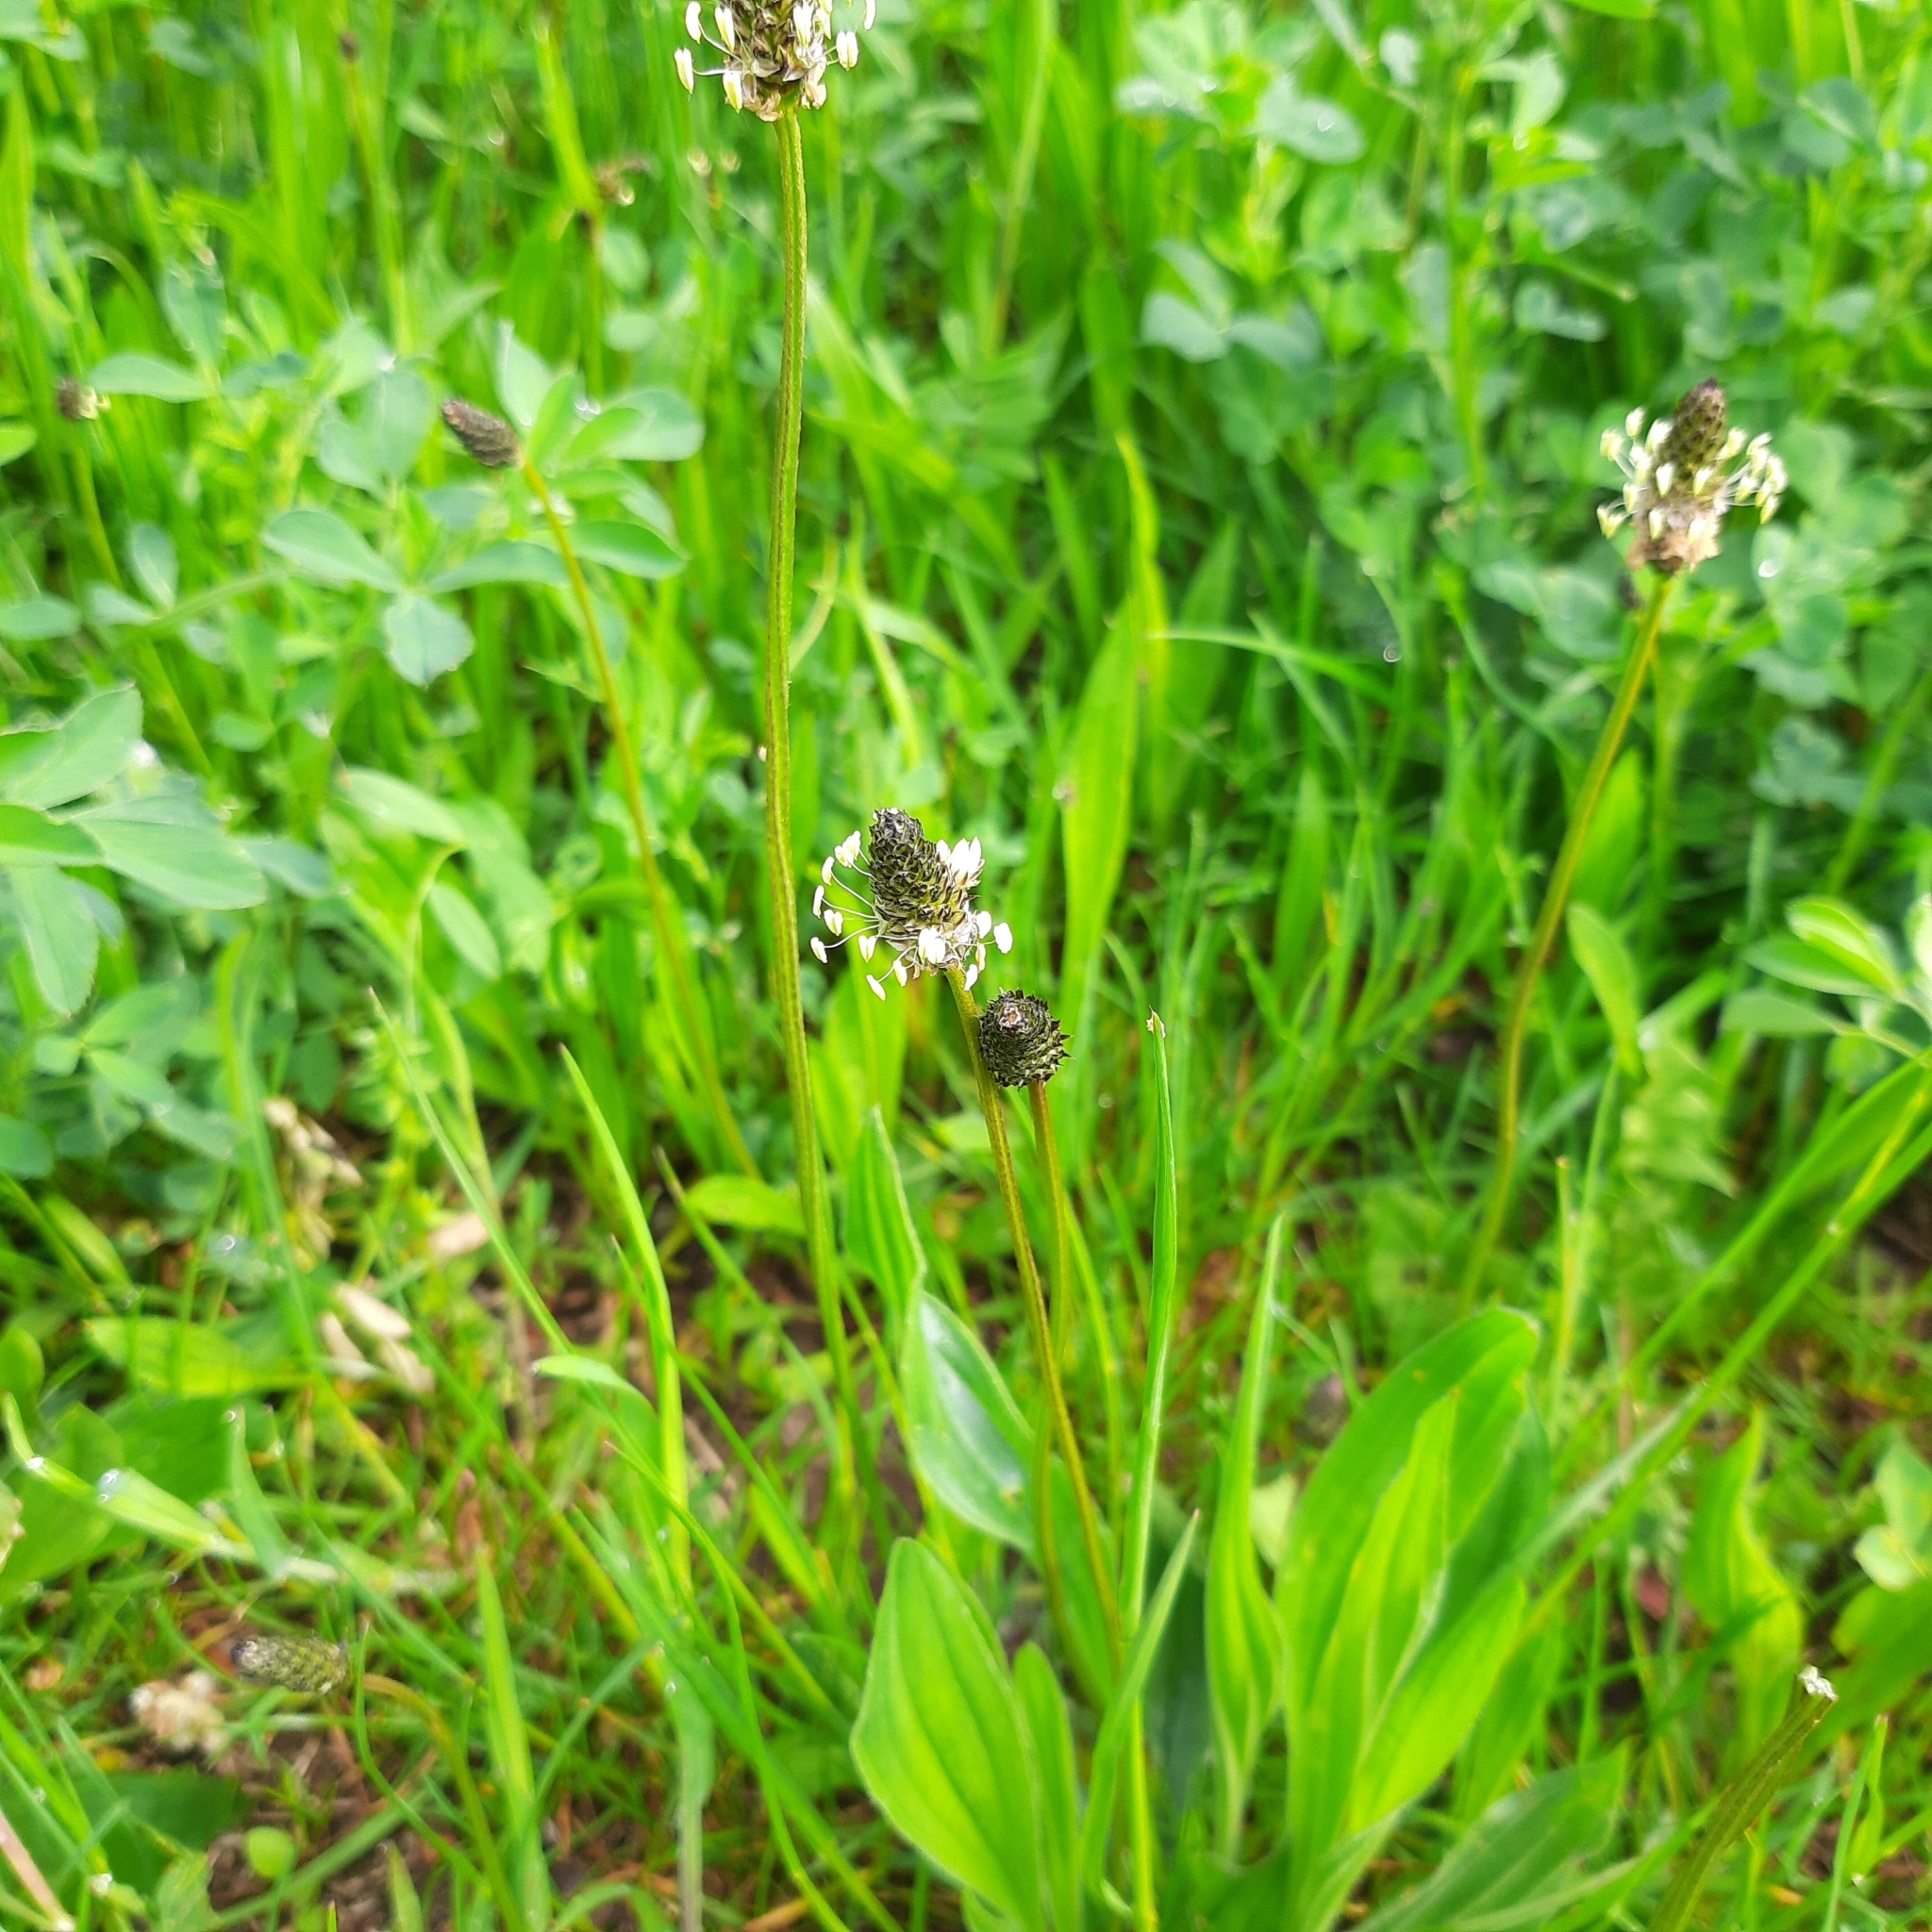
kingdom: Plantae
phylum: Tracheophyta
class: Magnoliopsida
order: Lamiales
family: Plantaginaceae
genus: Plantago
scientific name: Plantago lanceolata
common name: Ribwort plantain
